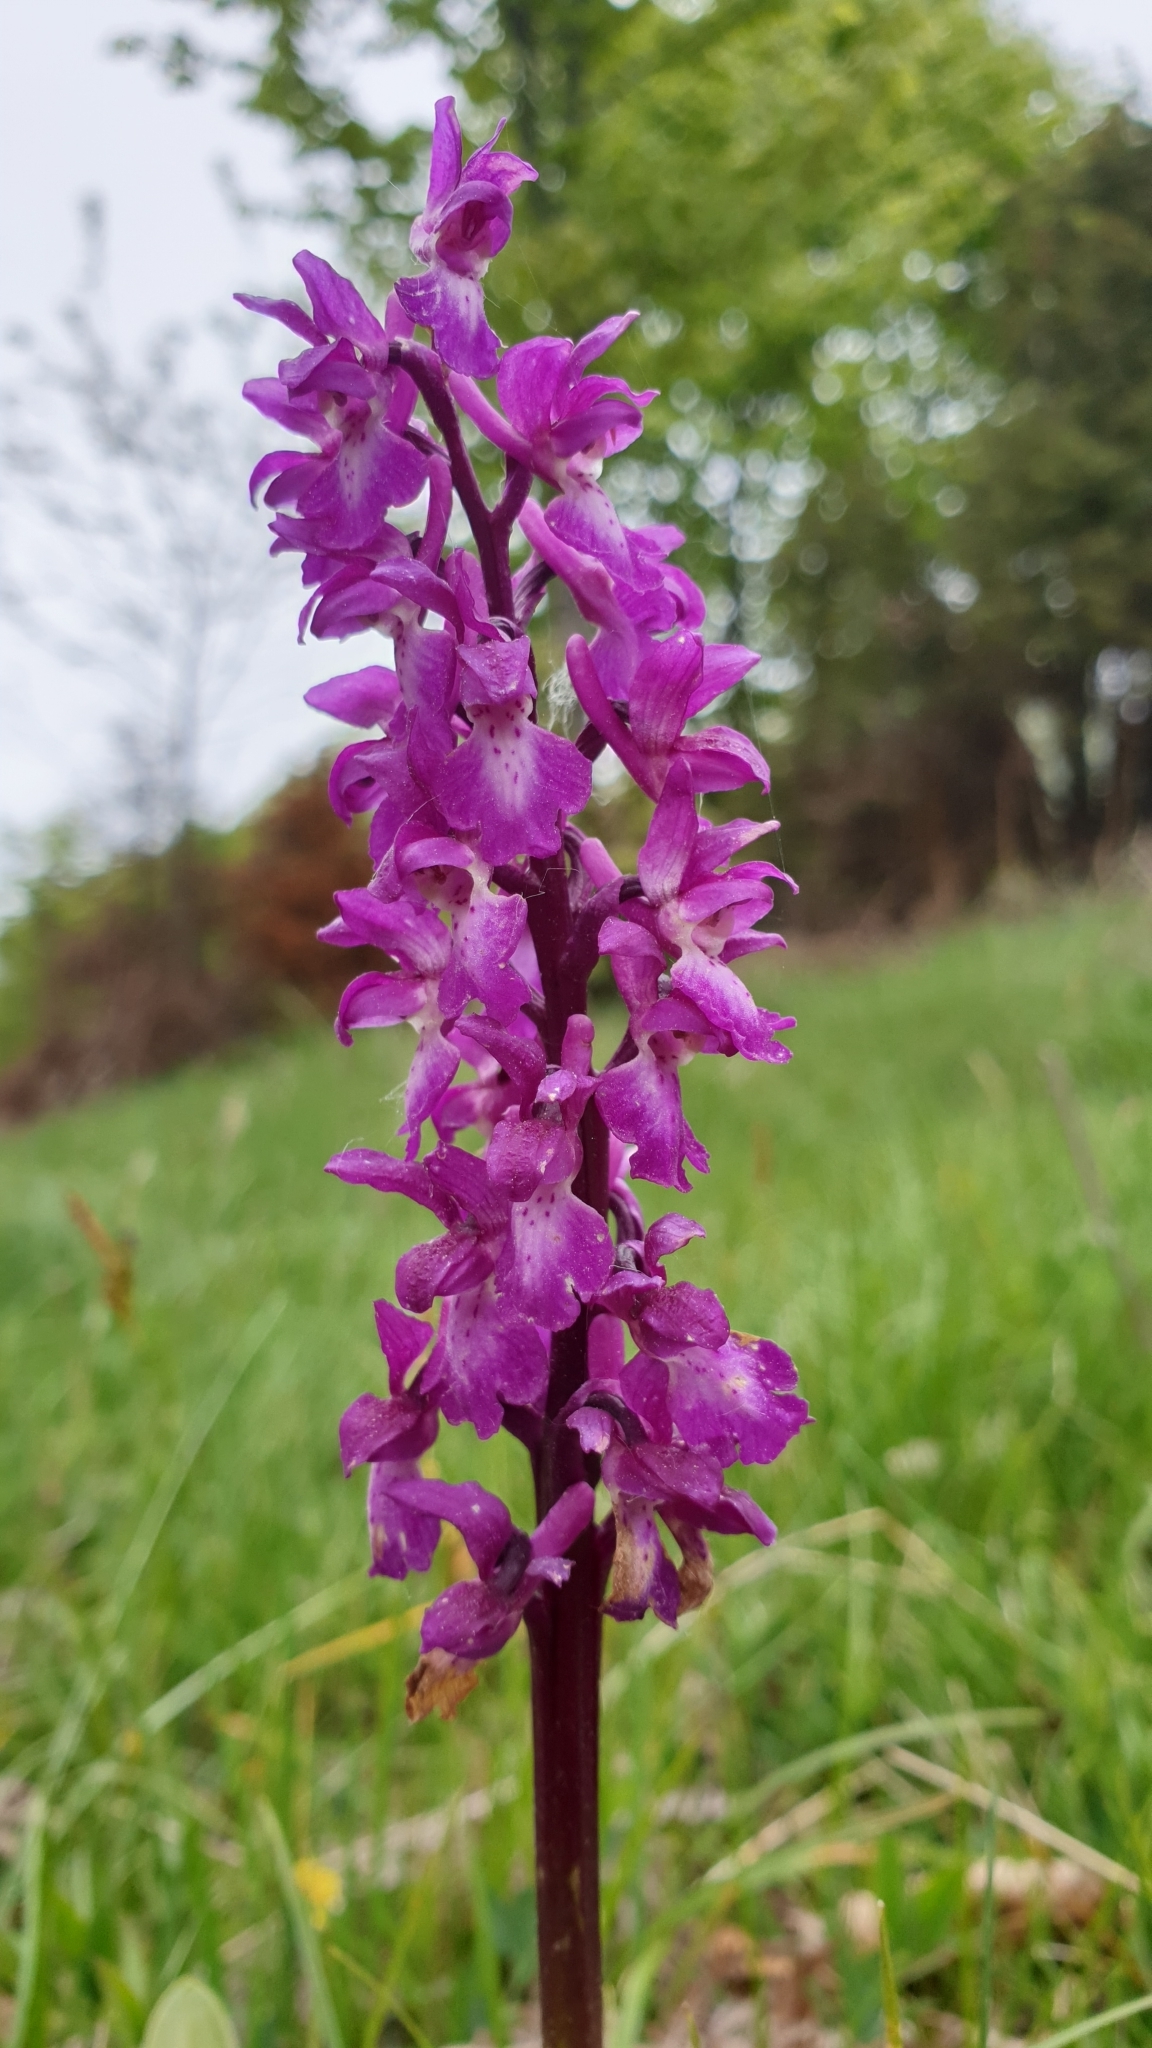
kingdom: Plantae
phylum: Tracheophyta
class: Liliopsida
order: Asparagales
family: Orchidaceae
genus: Orchis
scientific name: Orchis mascula
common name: Early-purple orchid
